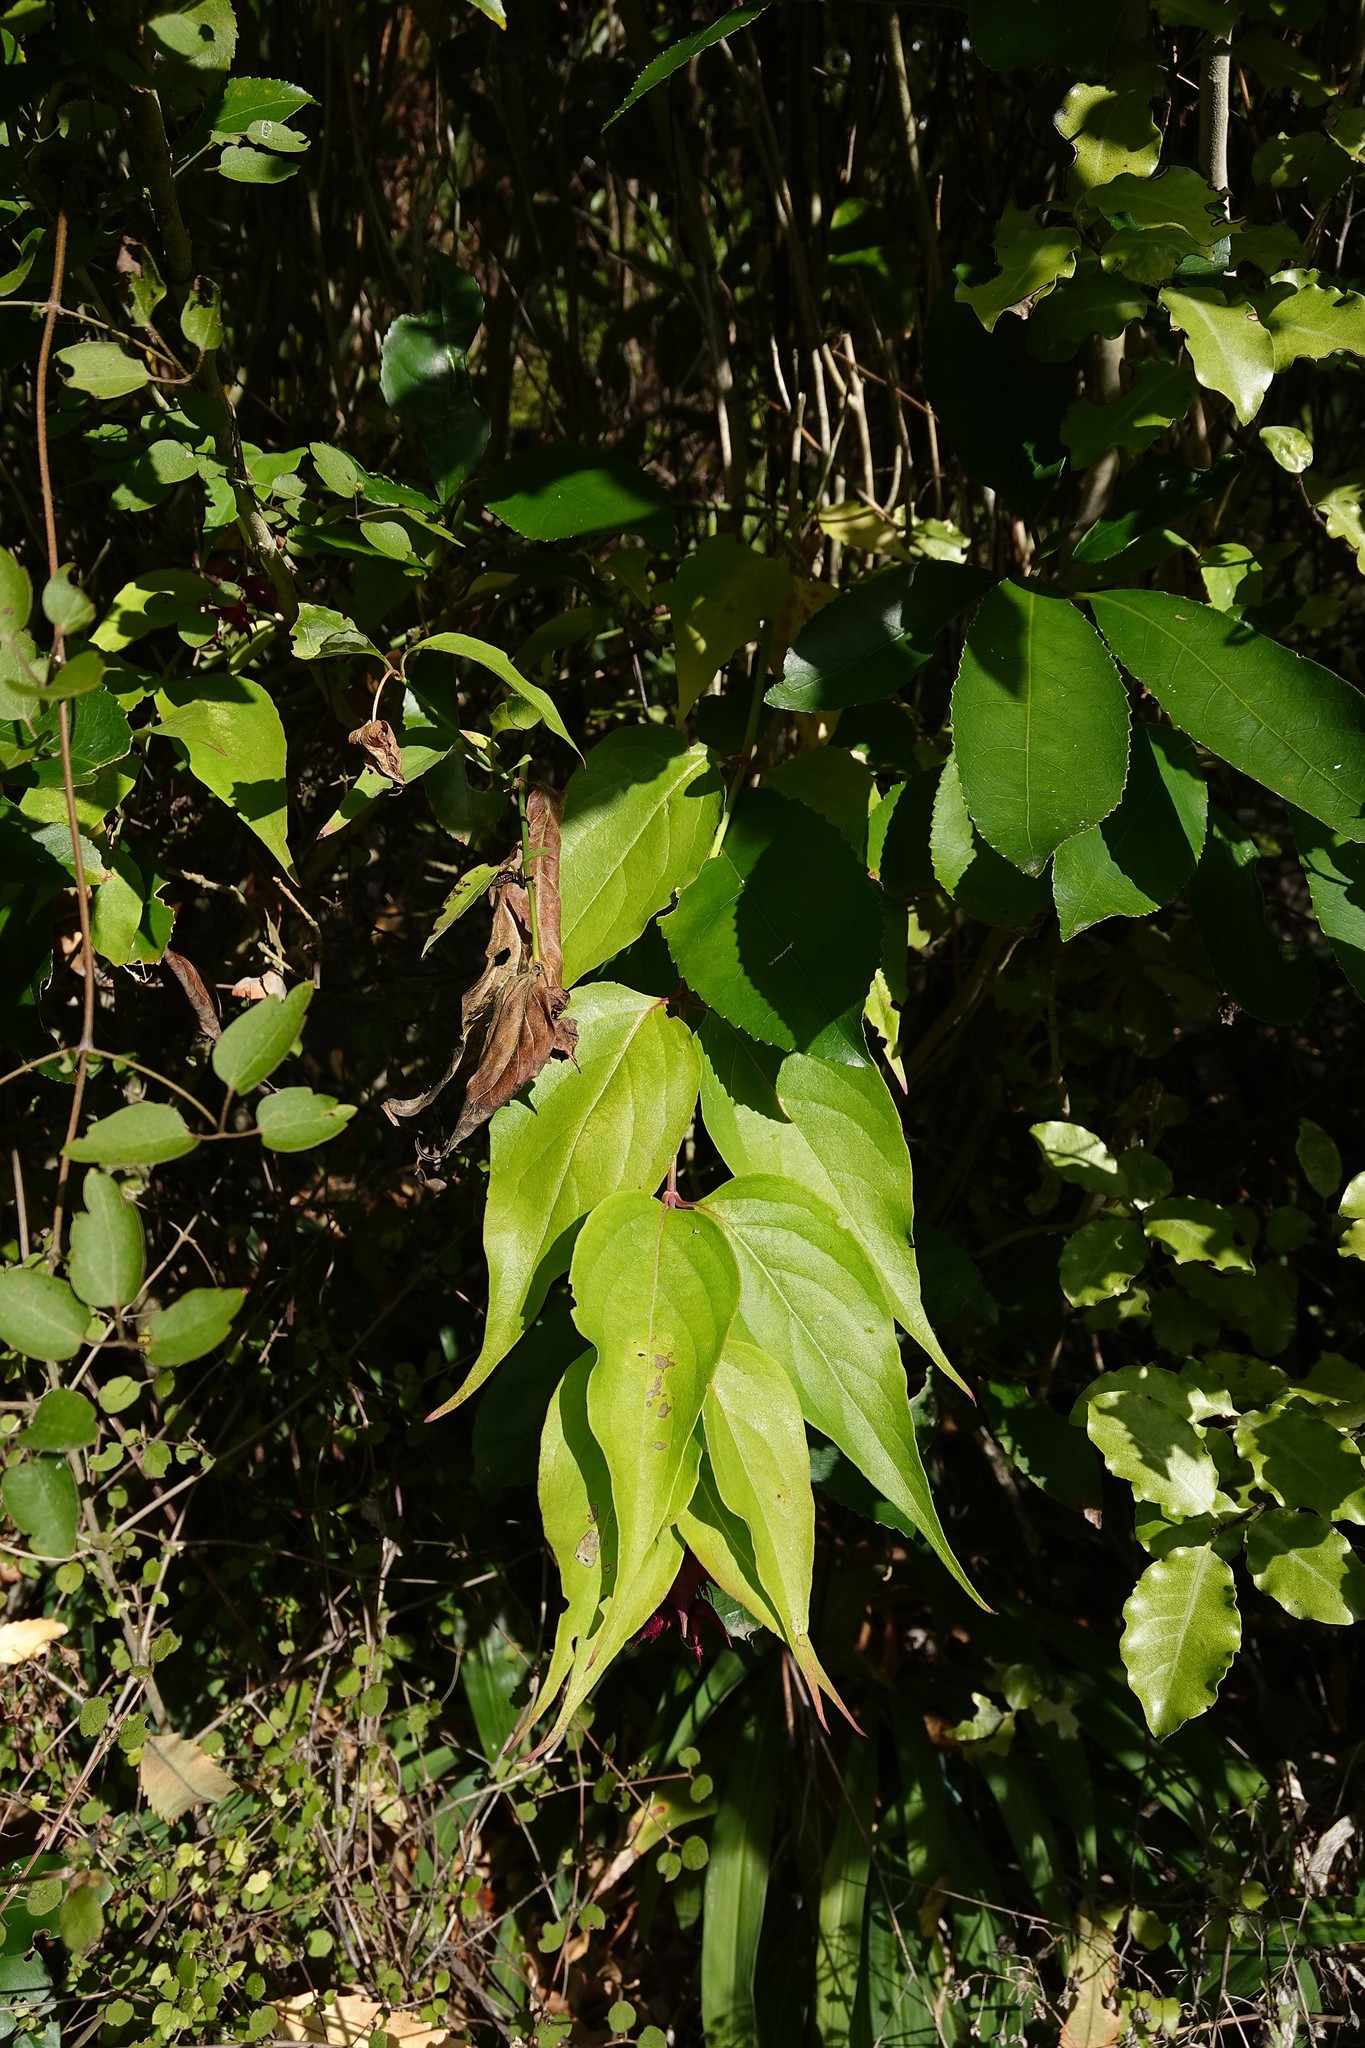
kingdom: Plantae
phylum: Tracheophyta
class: Magnoliopsida
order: Dipsacales
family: Caprifoliaceae
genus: Leycesteria
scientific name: Leycesteria formosa
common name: Himalayan honeysuckle
